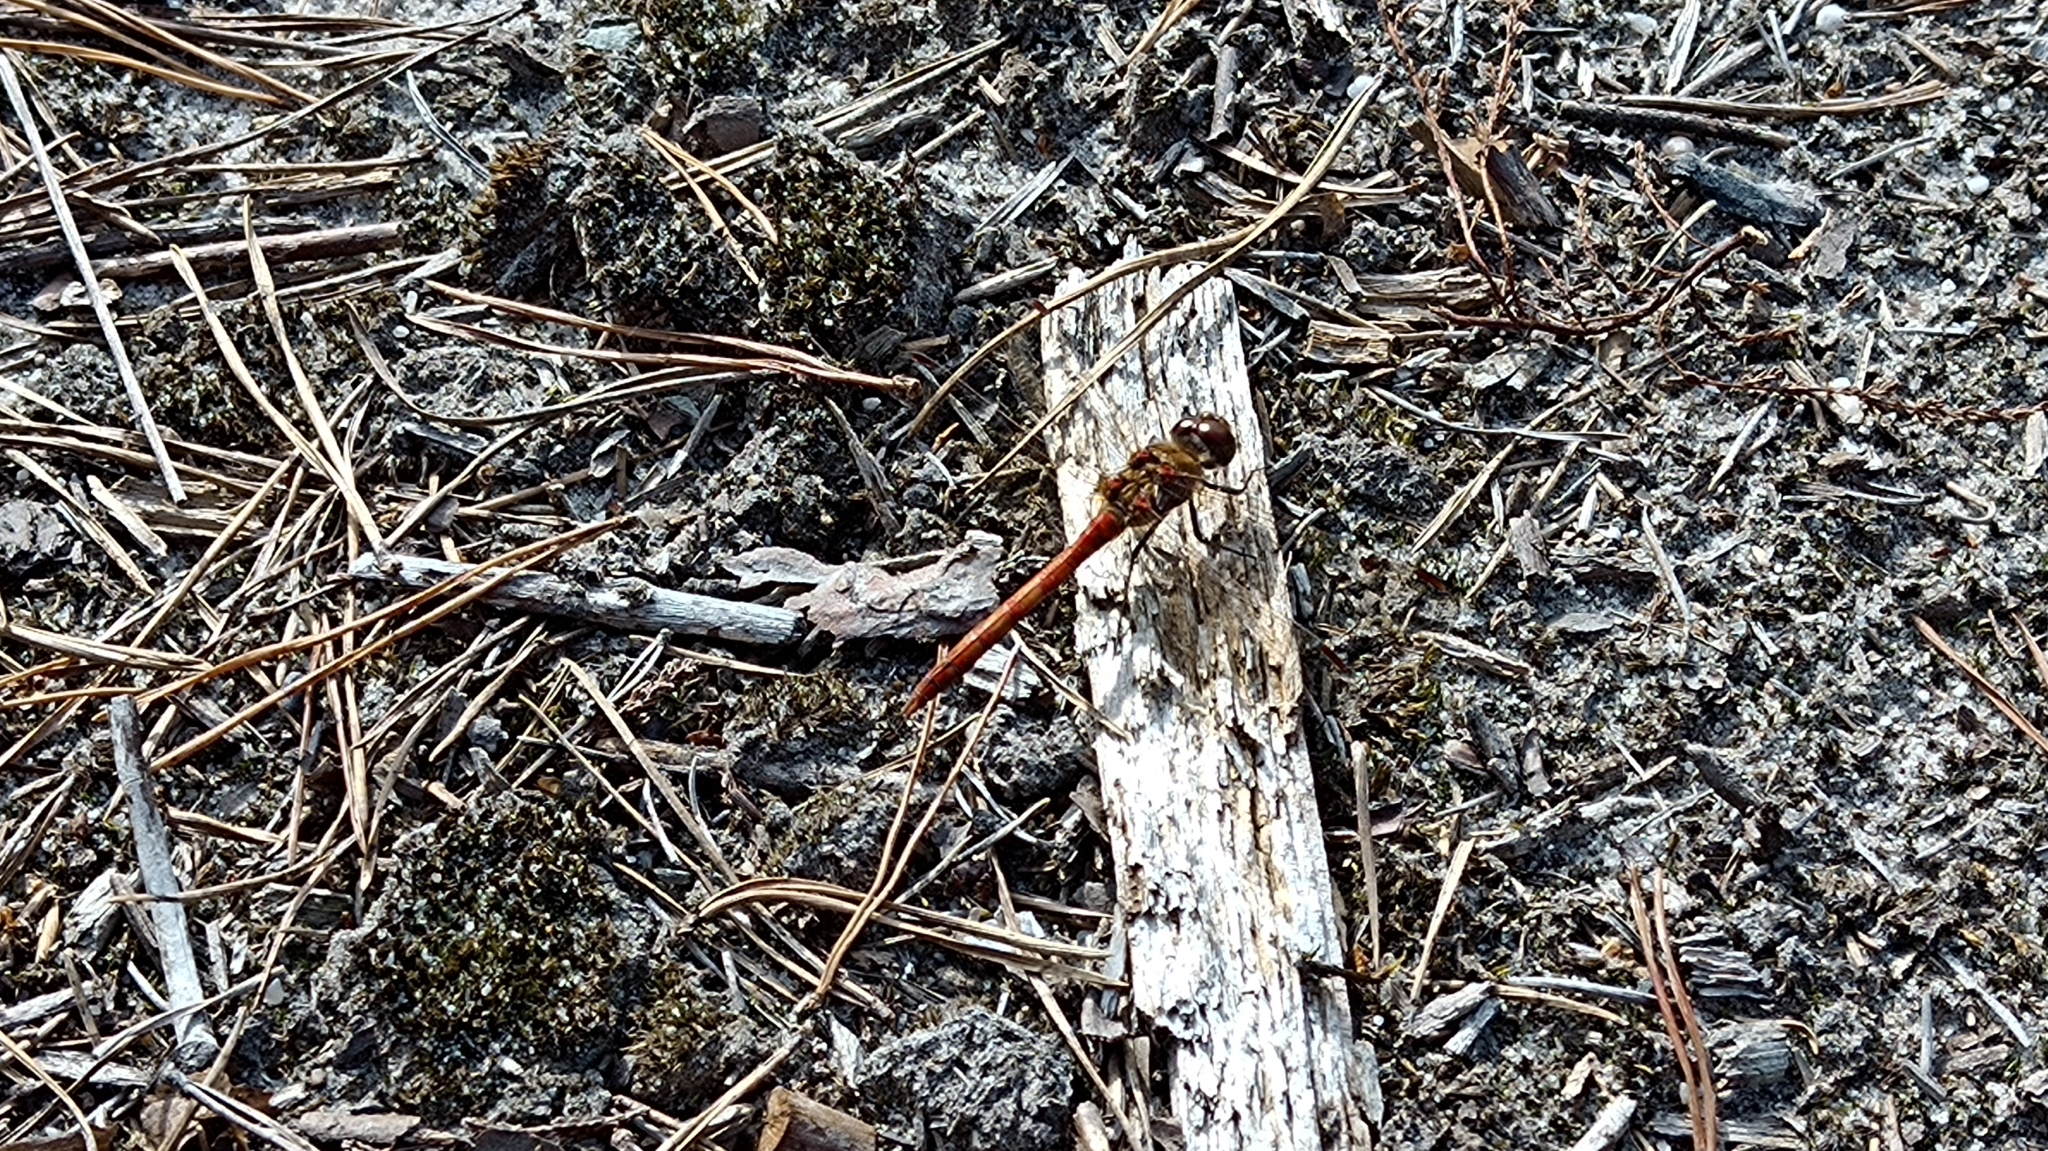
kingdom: Animalia
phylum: Arthropoda
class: Insecta
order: Odonata
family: Libellulidae
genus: Sympetrum
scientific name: Sympetrum striolatum
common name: Common darter
